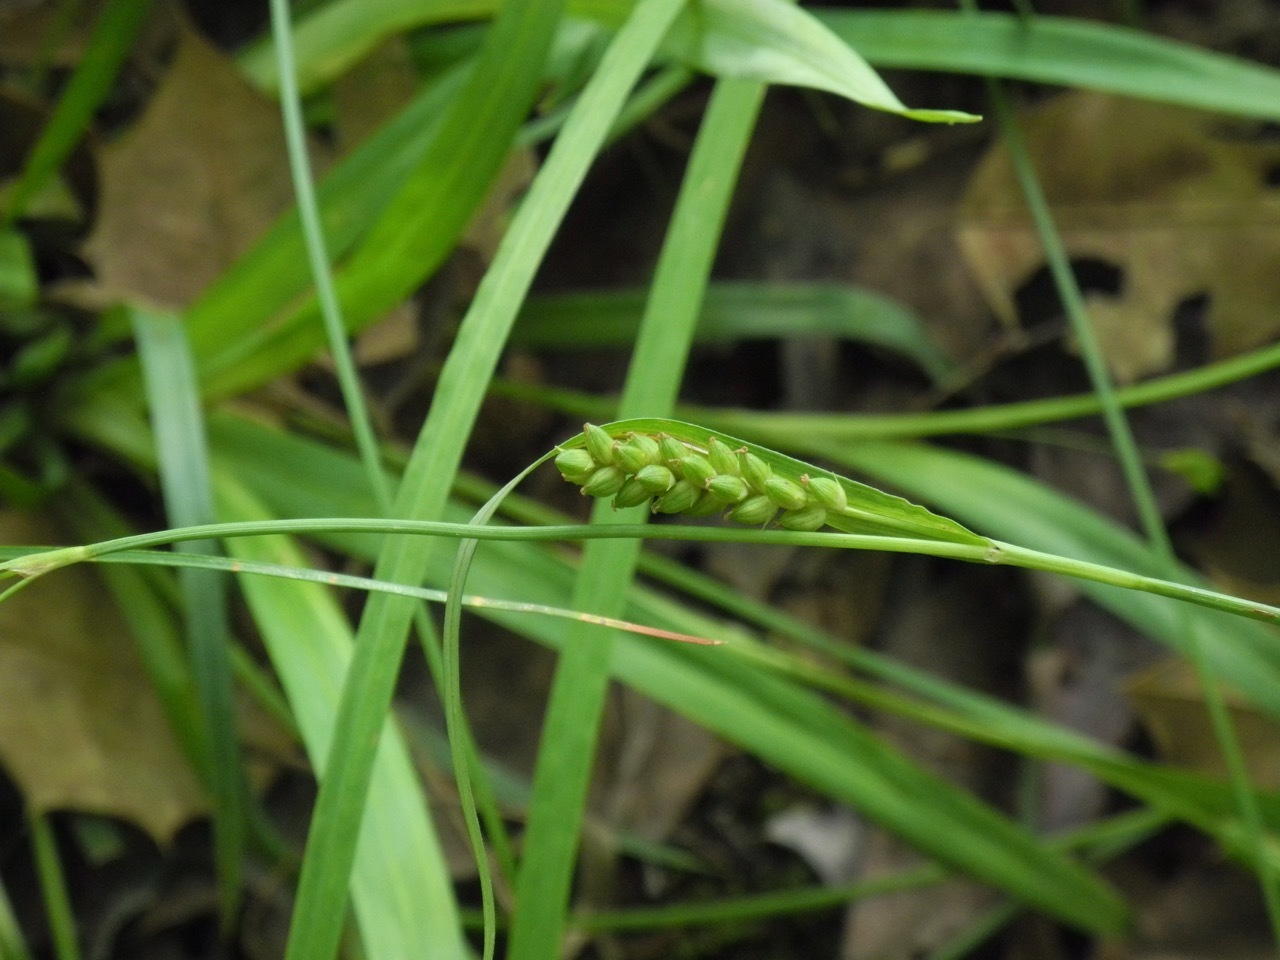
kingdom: Plantae
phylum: Tracheophyta
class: Liliopsida
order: Poales
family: Cyperaceae
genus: Carex
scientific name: Carex flaccosperma
